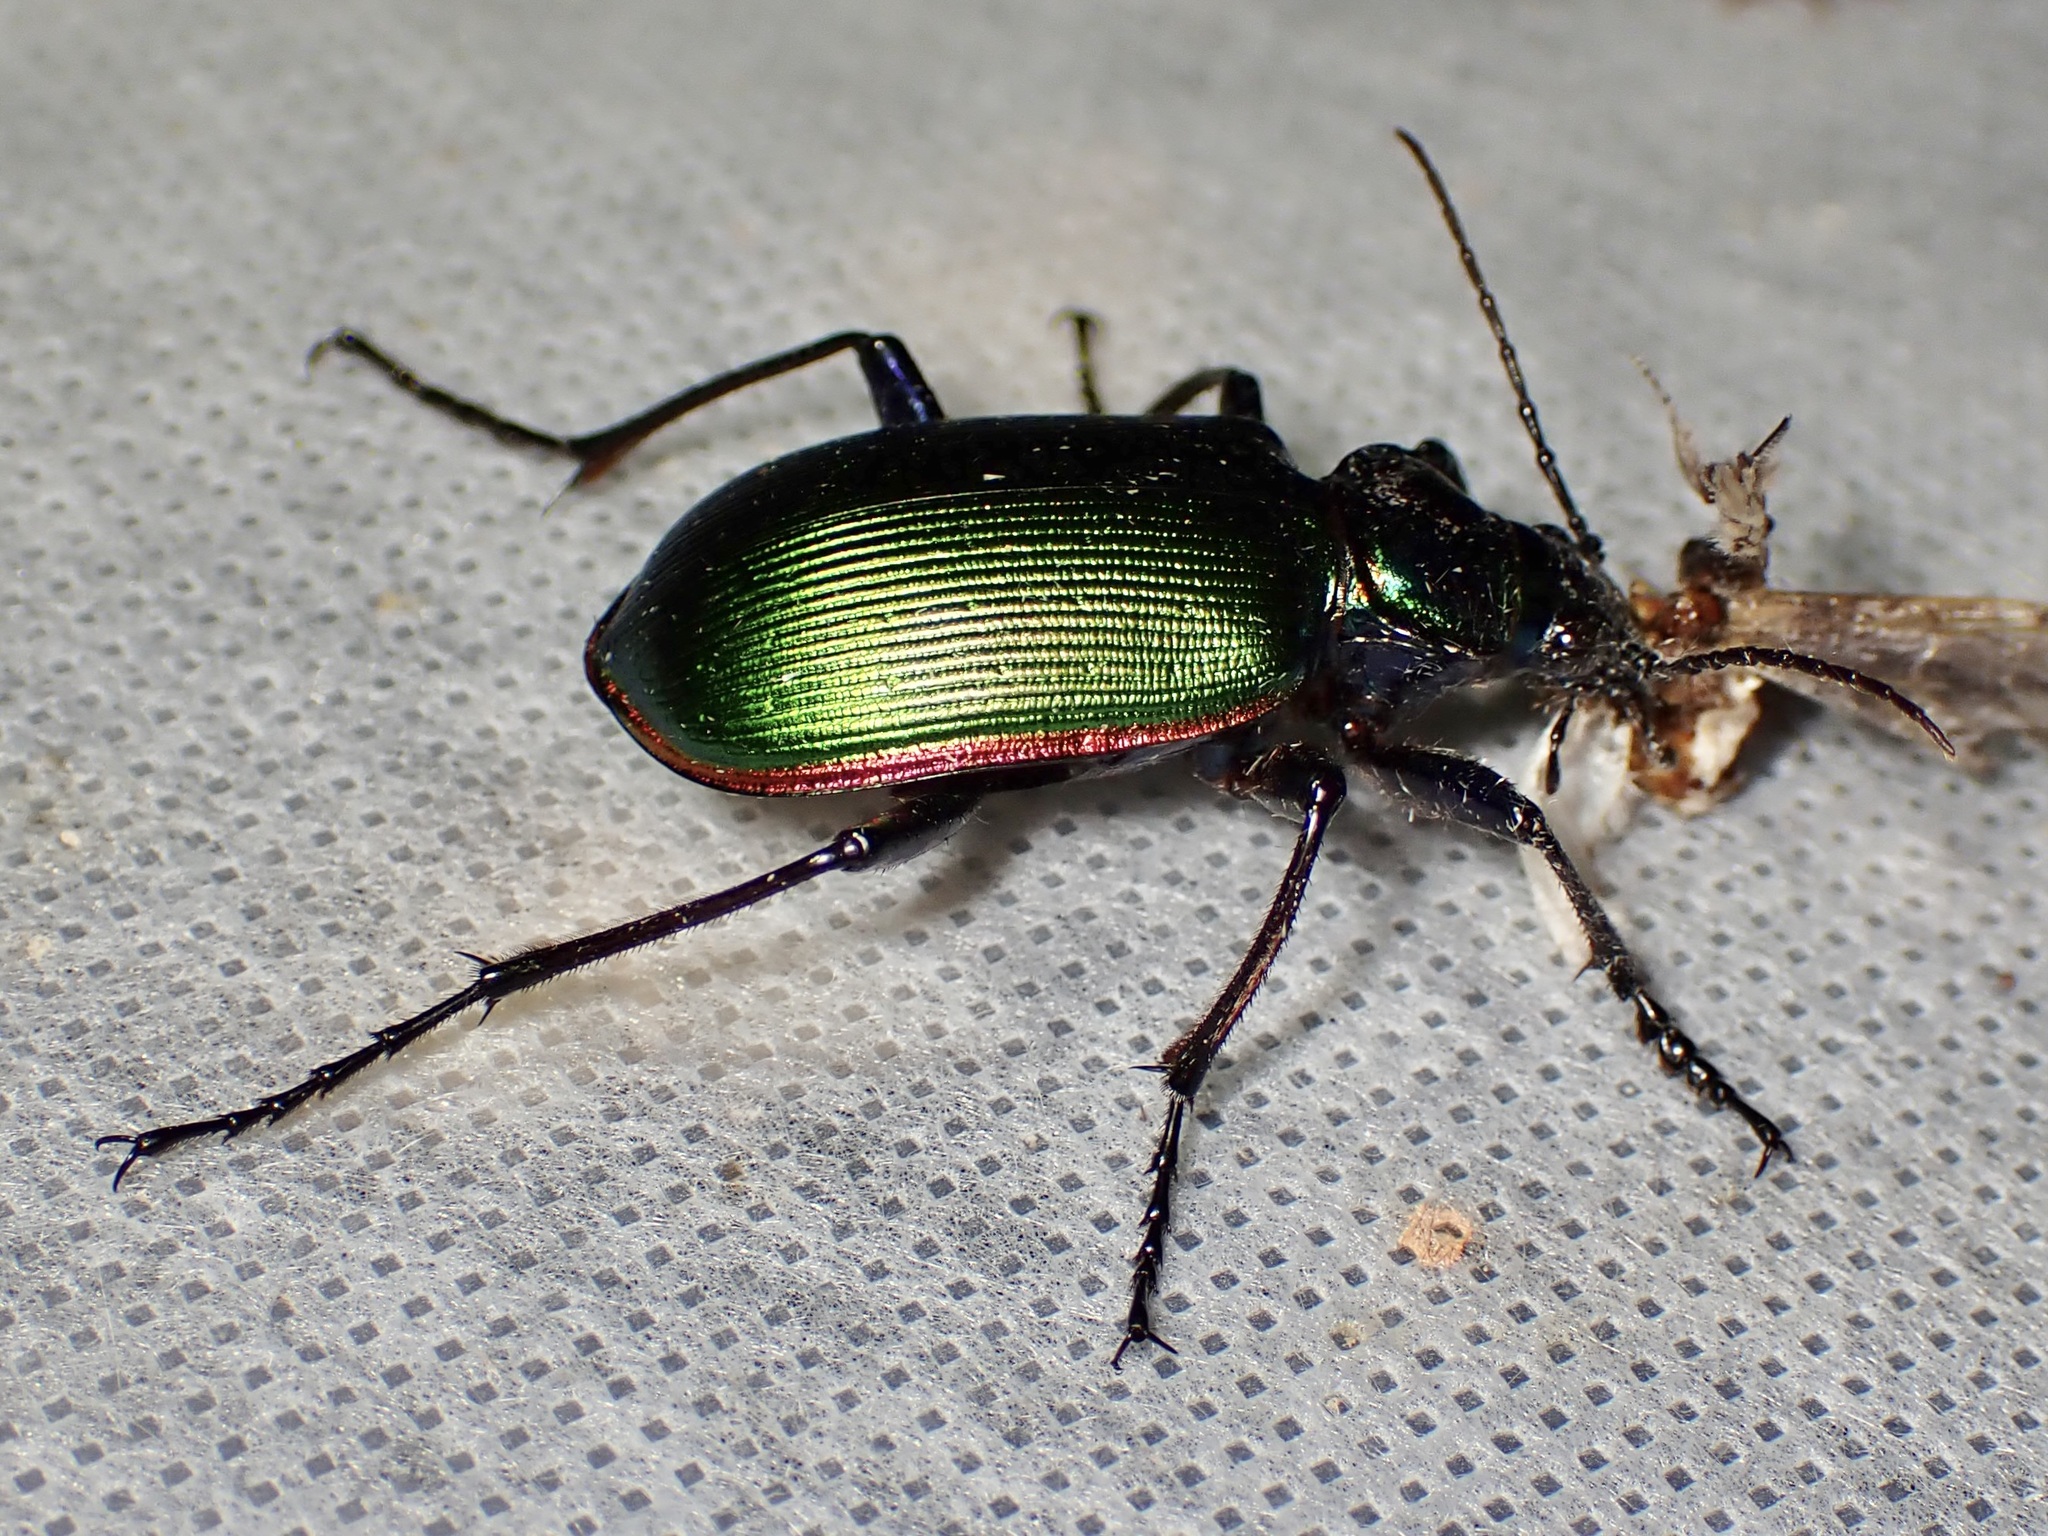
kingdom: Animalia
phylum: Arthropoda
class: Insecta
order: Coleoptera
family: Carabidae
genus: Calosoma
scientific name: Calosoma scrutator
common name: Fiery searcher beetle
